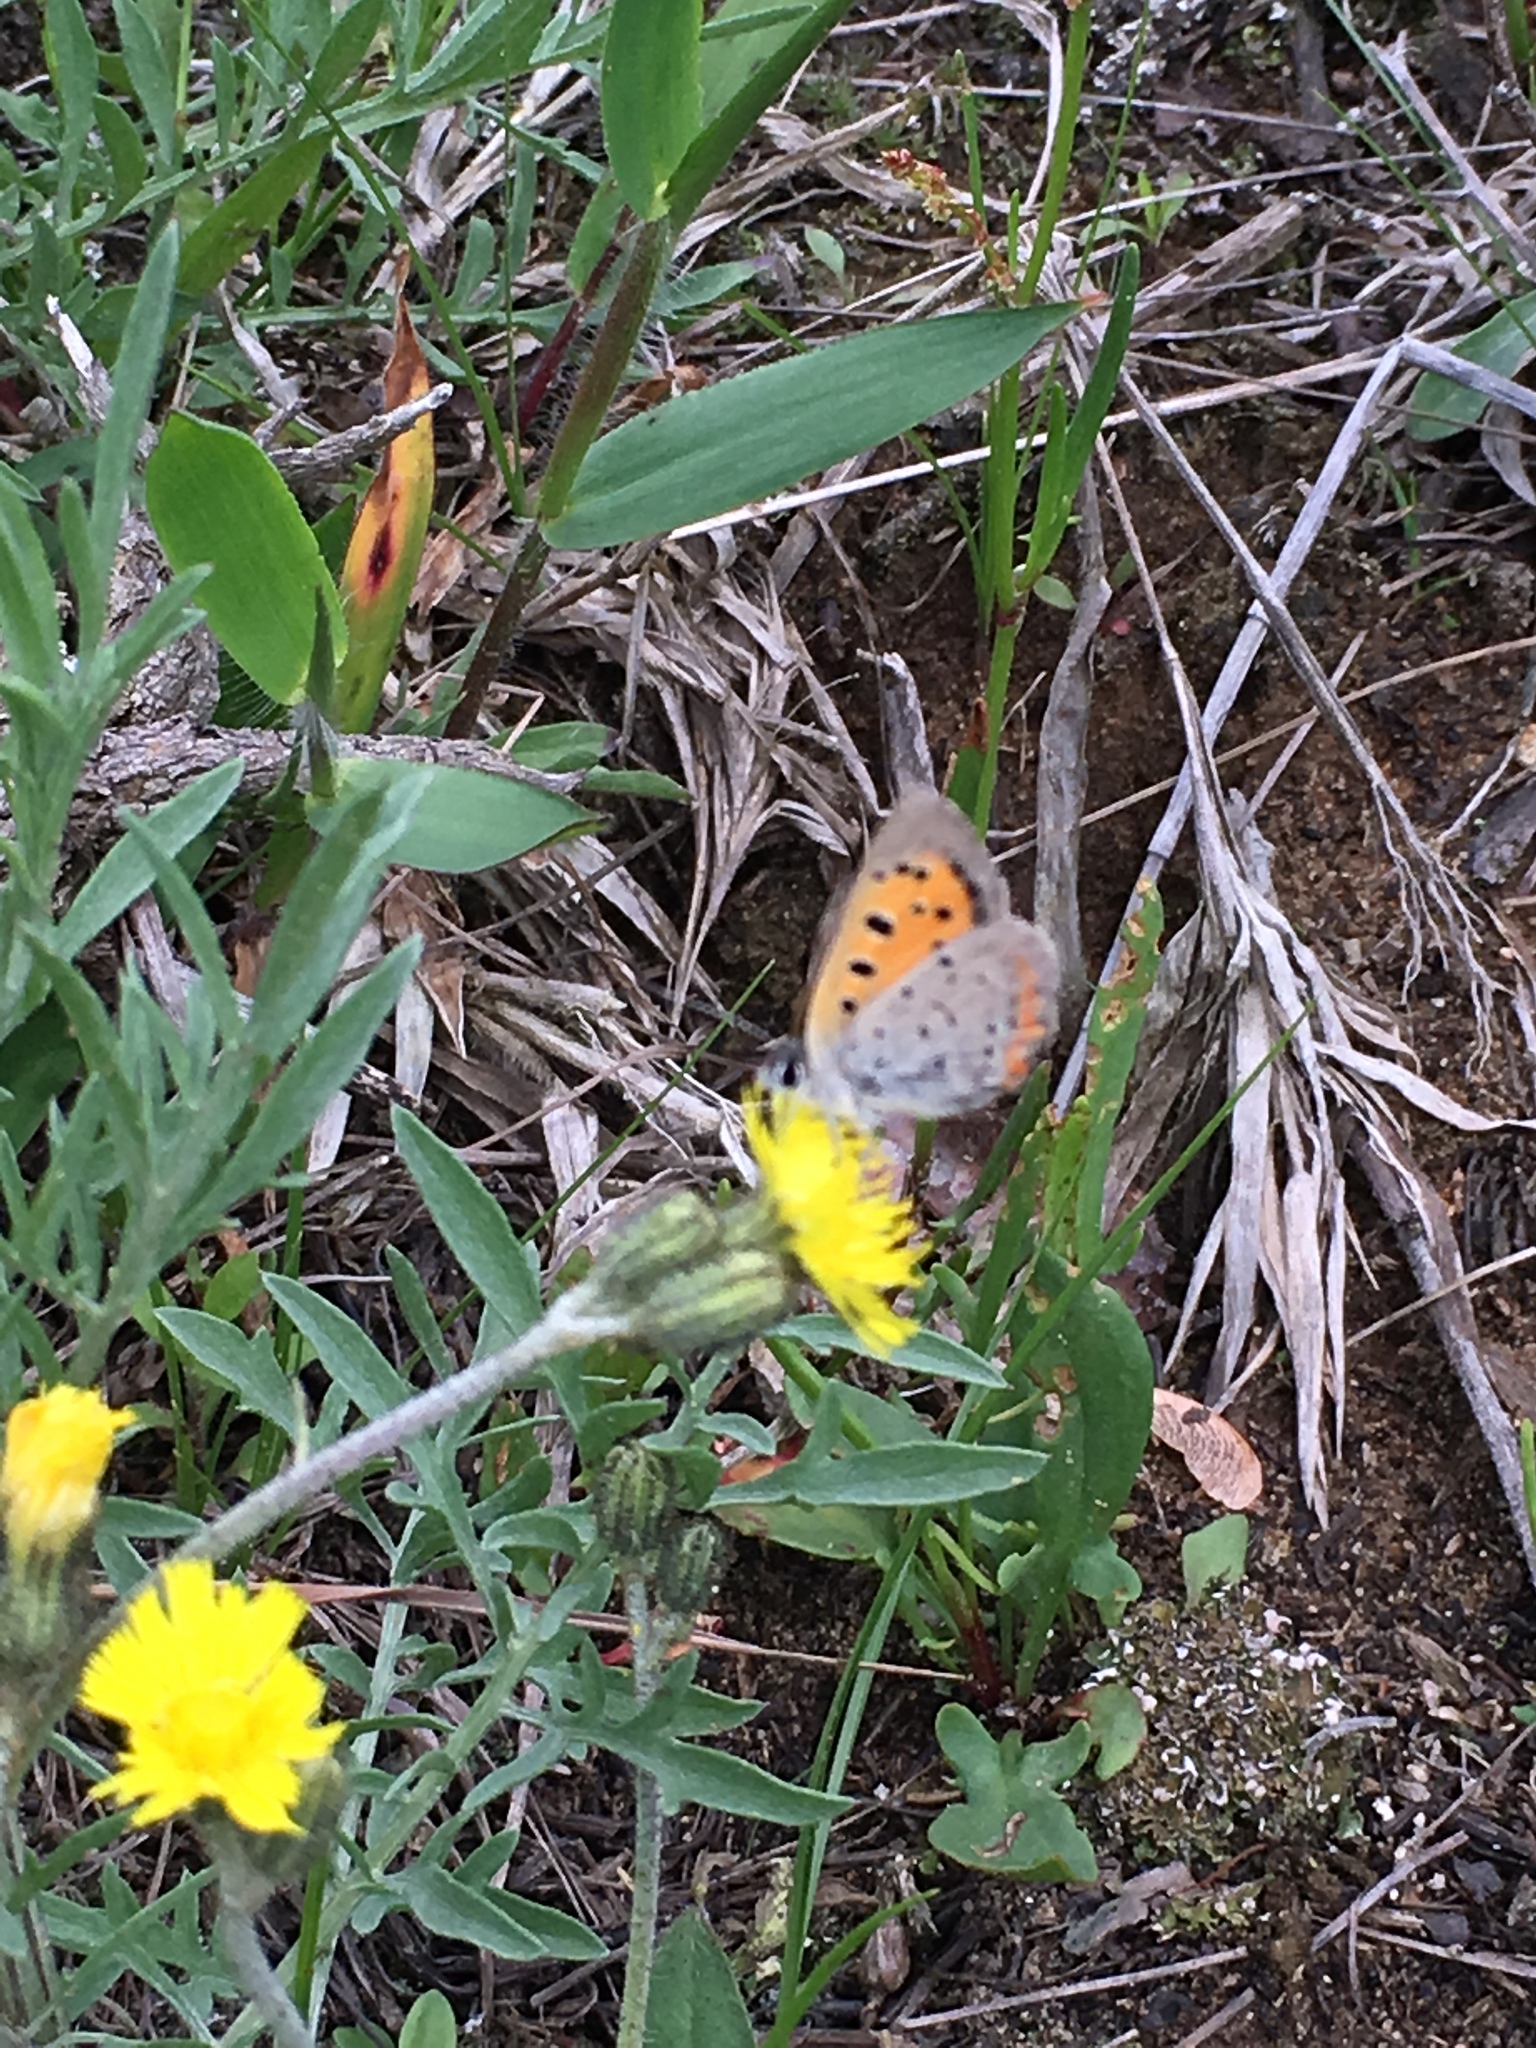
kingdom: Animalia
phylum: Arthropoda
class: Insecta
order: Lepidoptera
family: Lycaenidae
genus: Lycaena
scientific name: Lycaena hypophlaeas
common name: American copper
